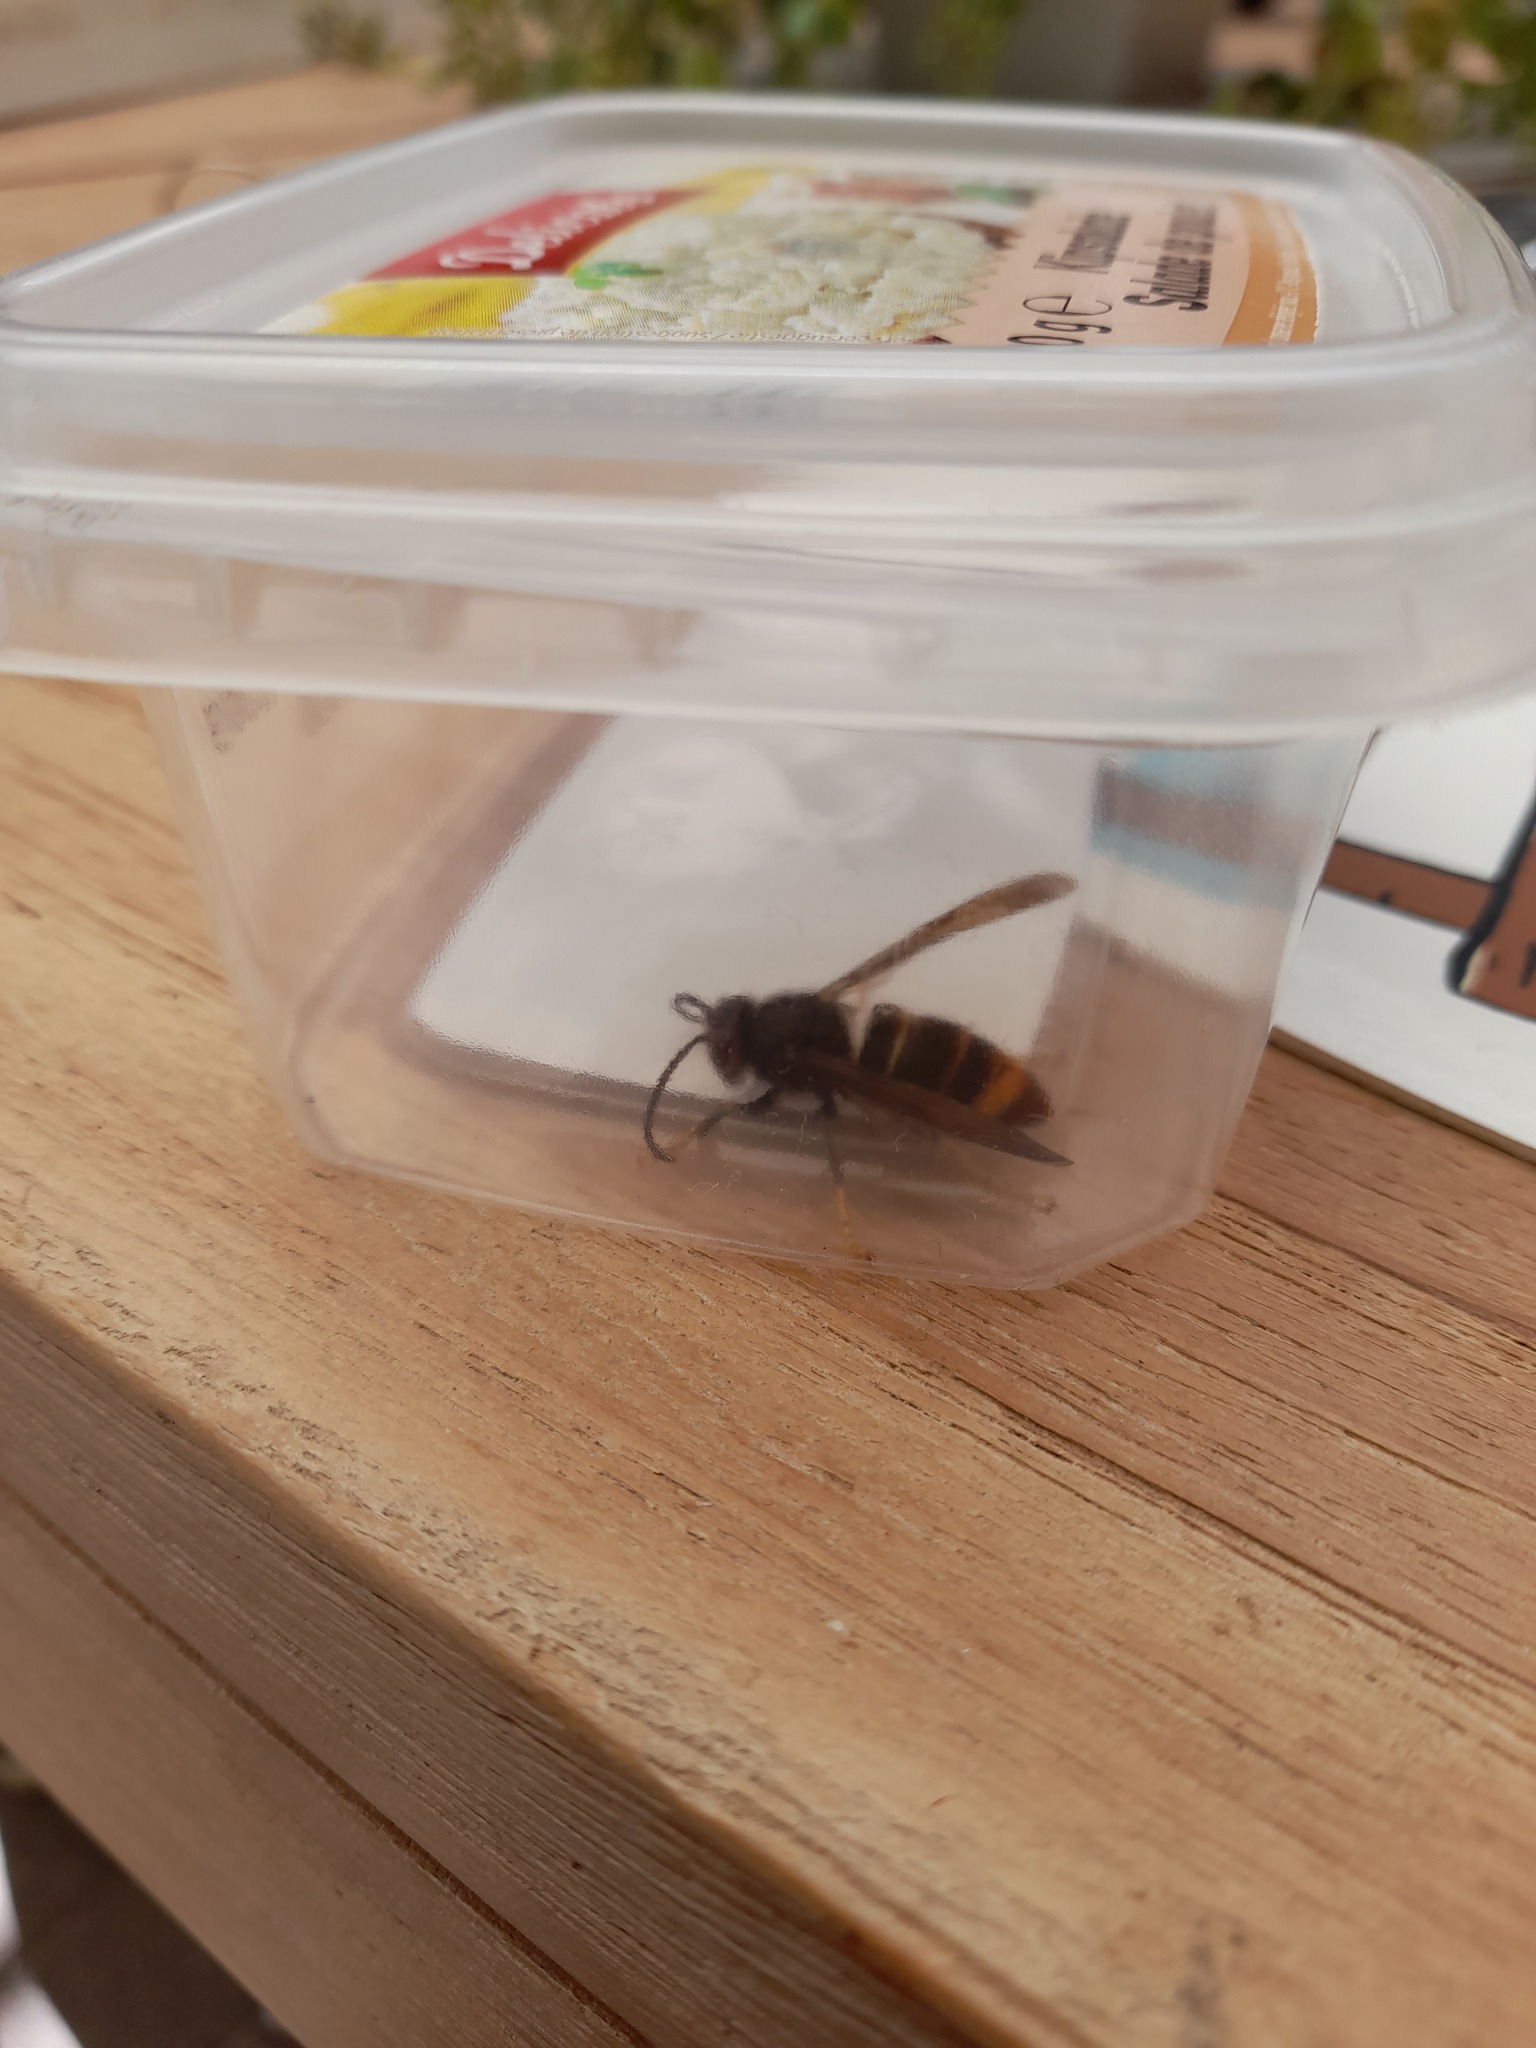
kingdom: Animalia
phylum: Arthropoda
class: Insecta
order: Hymenoptera
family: Vespidae
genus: Vespa
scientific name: Vespa velutina
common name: Asian hornet
